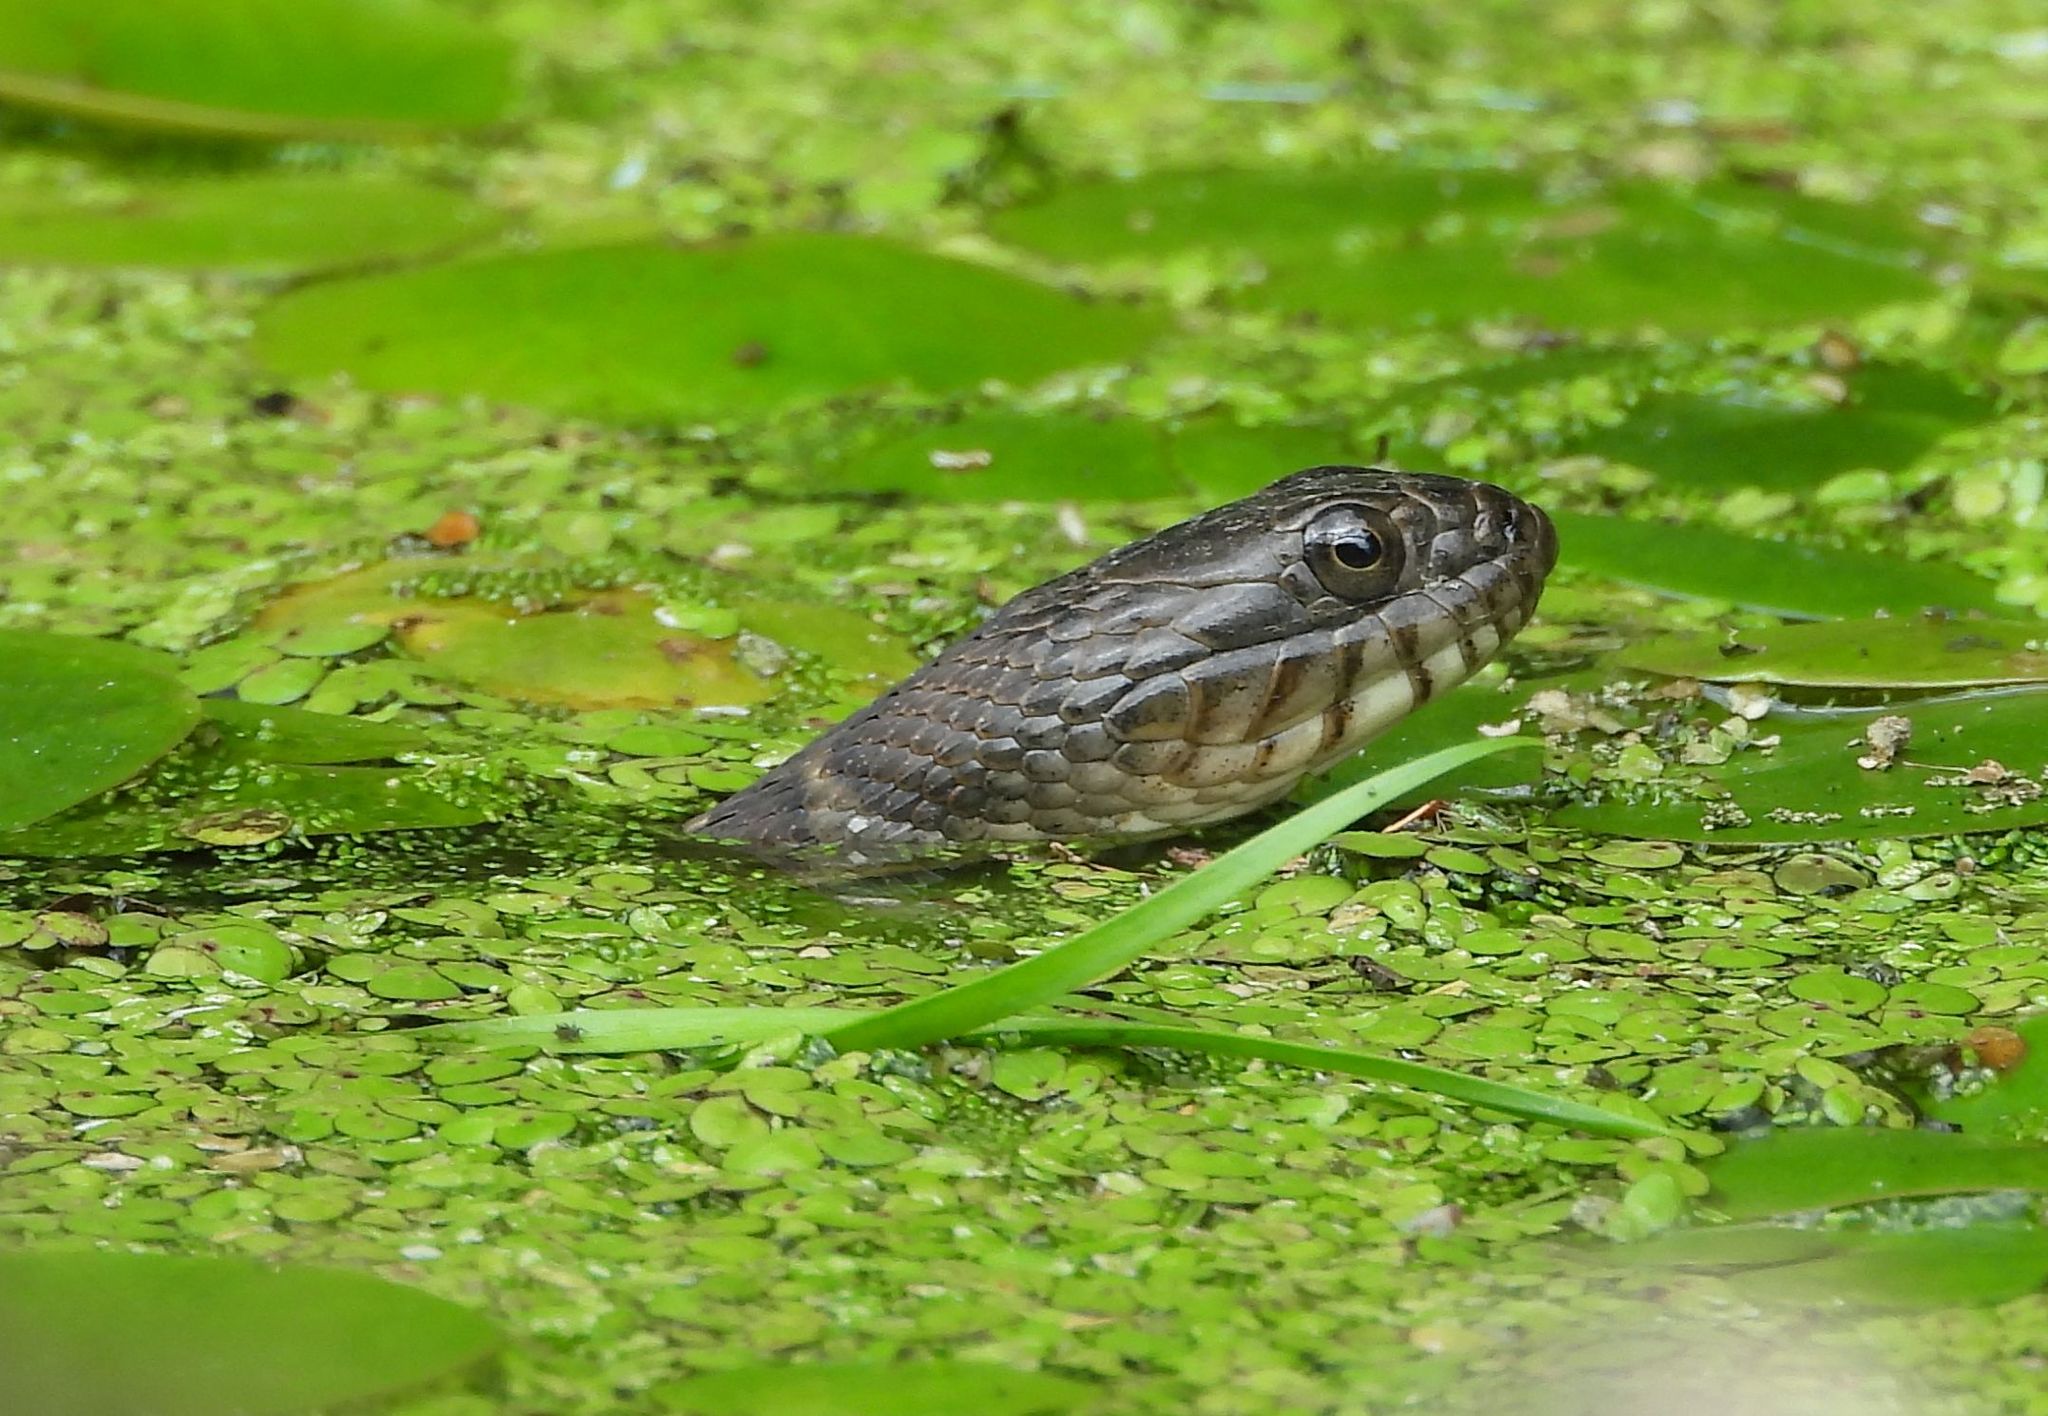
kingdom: Animalia
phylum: Chordata
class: Squamata
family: Colubridae
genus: Nerodia
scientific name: Nerodia sipedon
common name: Northern water snake
